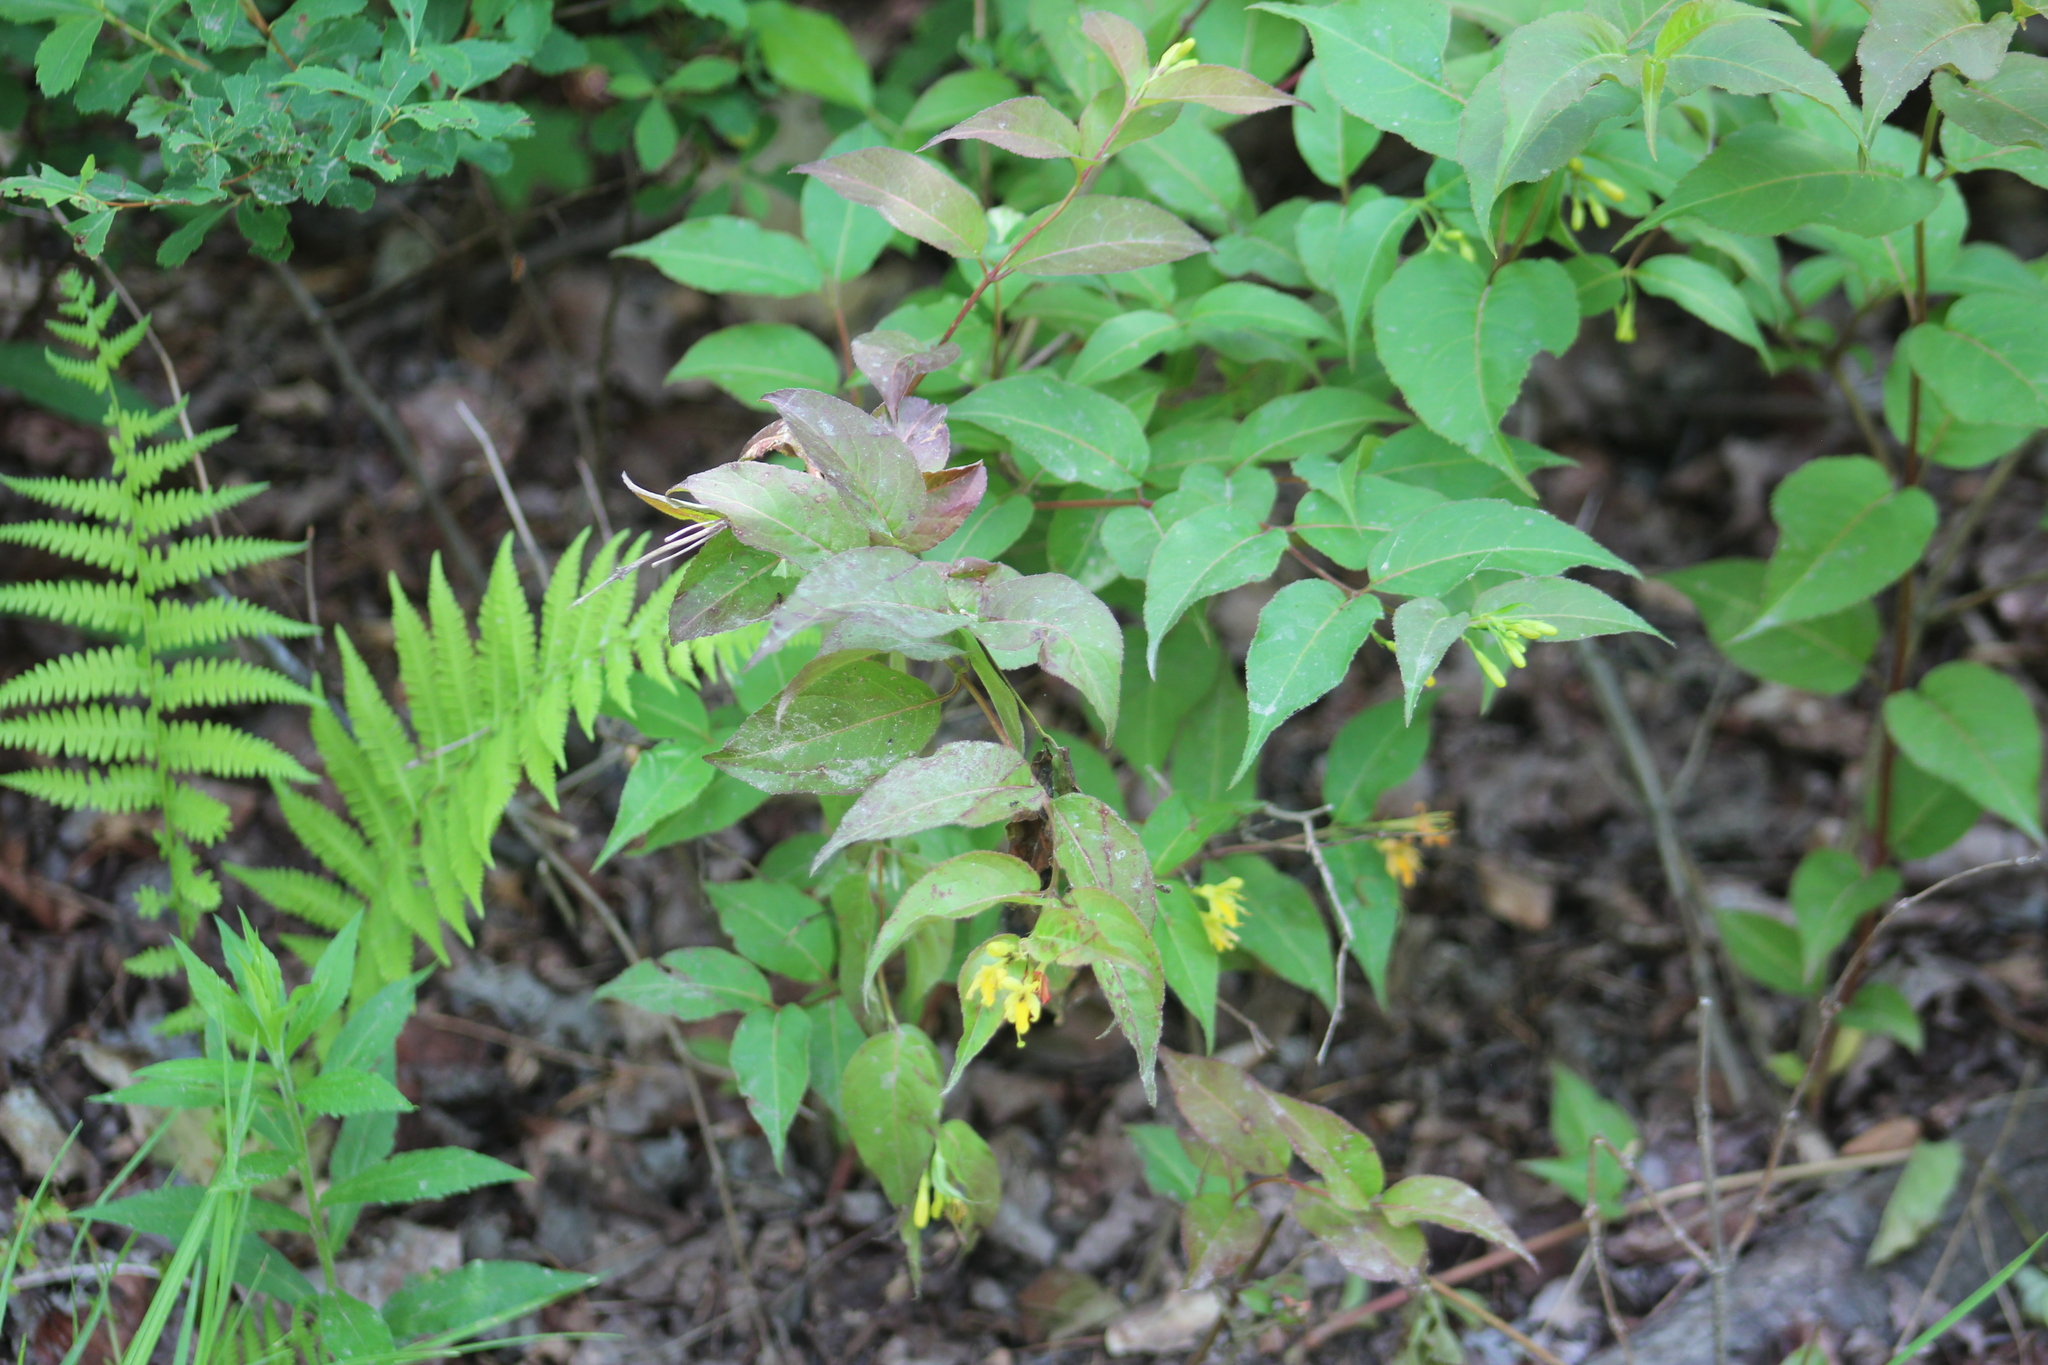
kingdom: Plantae
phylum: Tracheophyta
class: Magnoliopsida
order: Dipsacales
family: Caprifoliaceae
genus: Diervilla
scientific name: Diervilla lonicera
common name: Bush-honeysuckle
